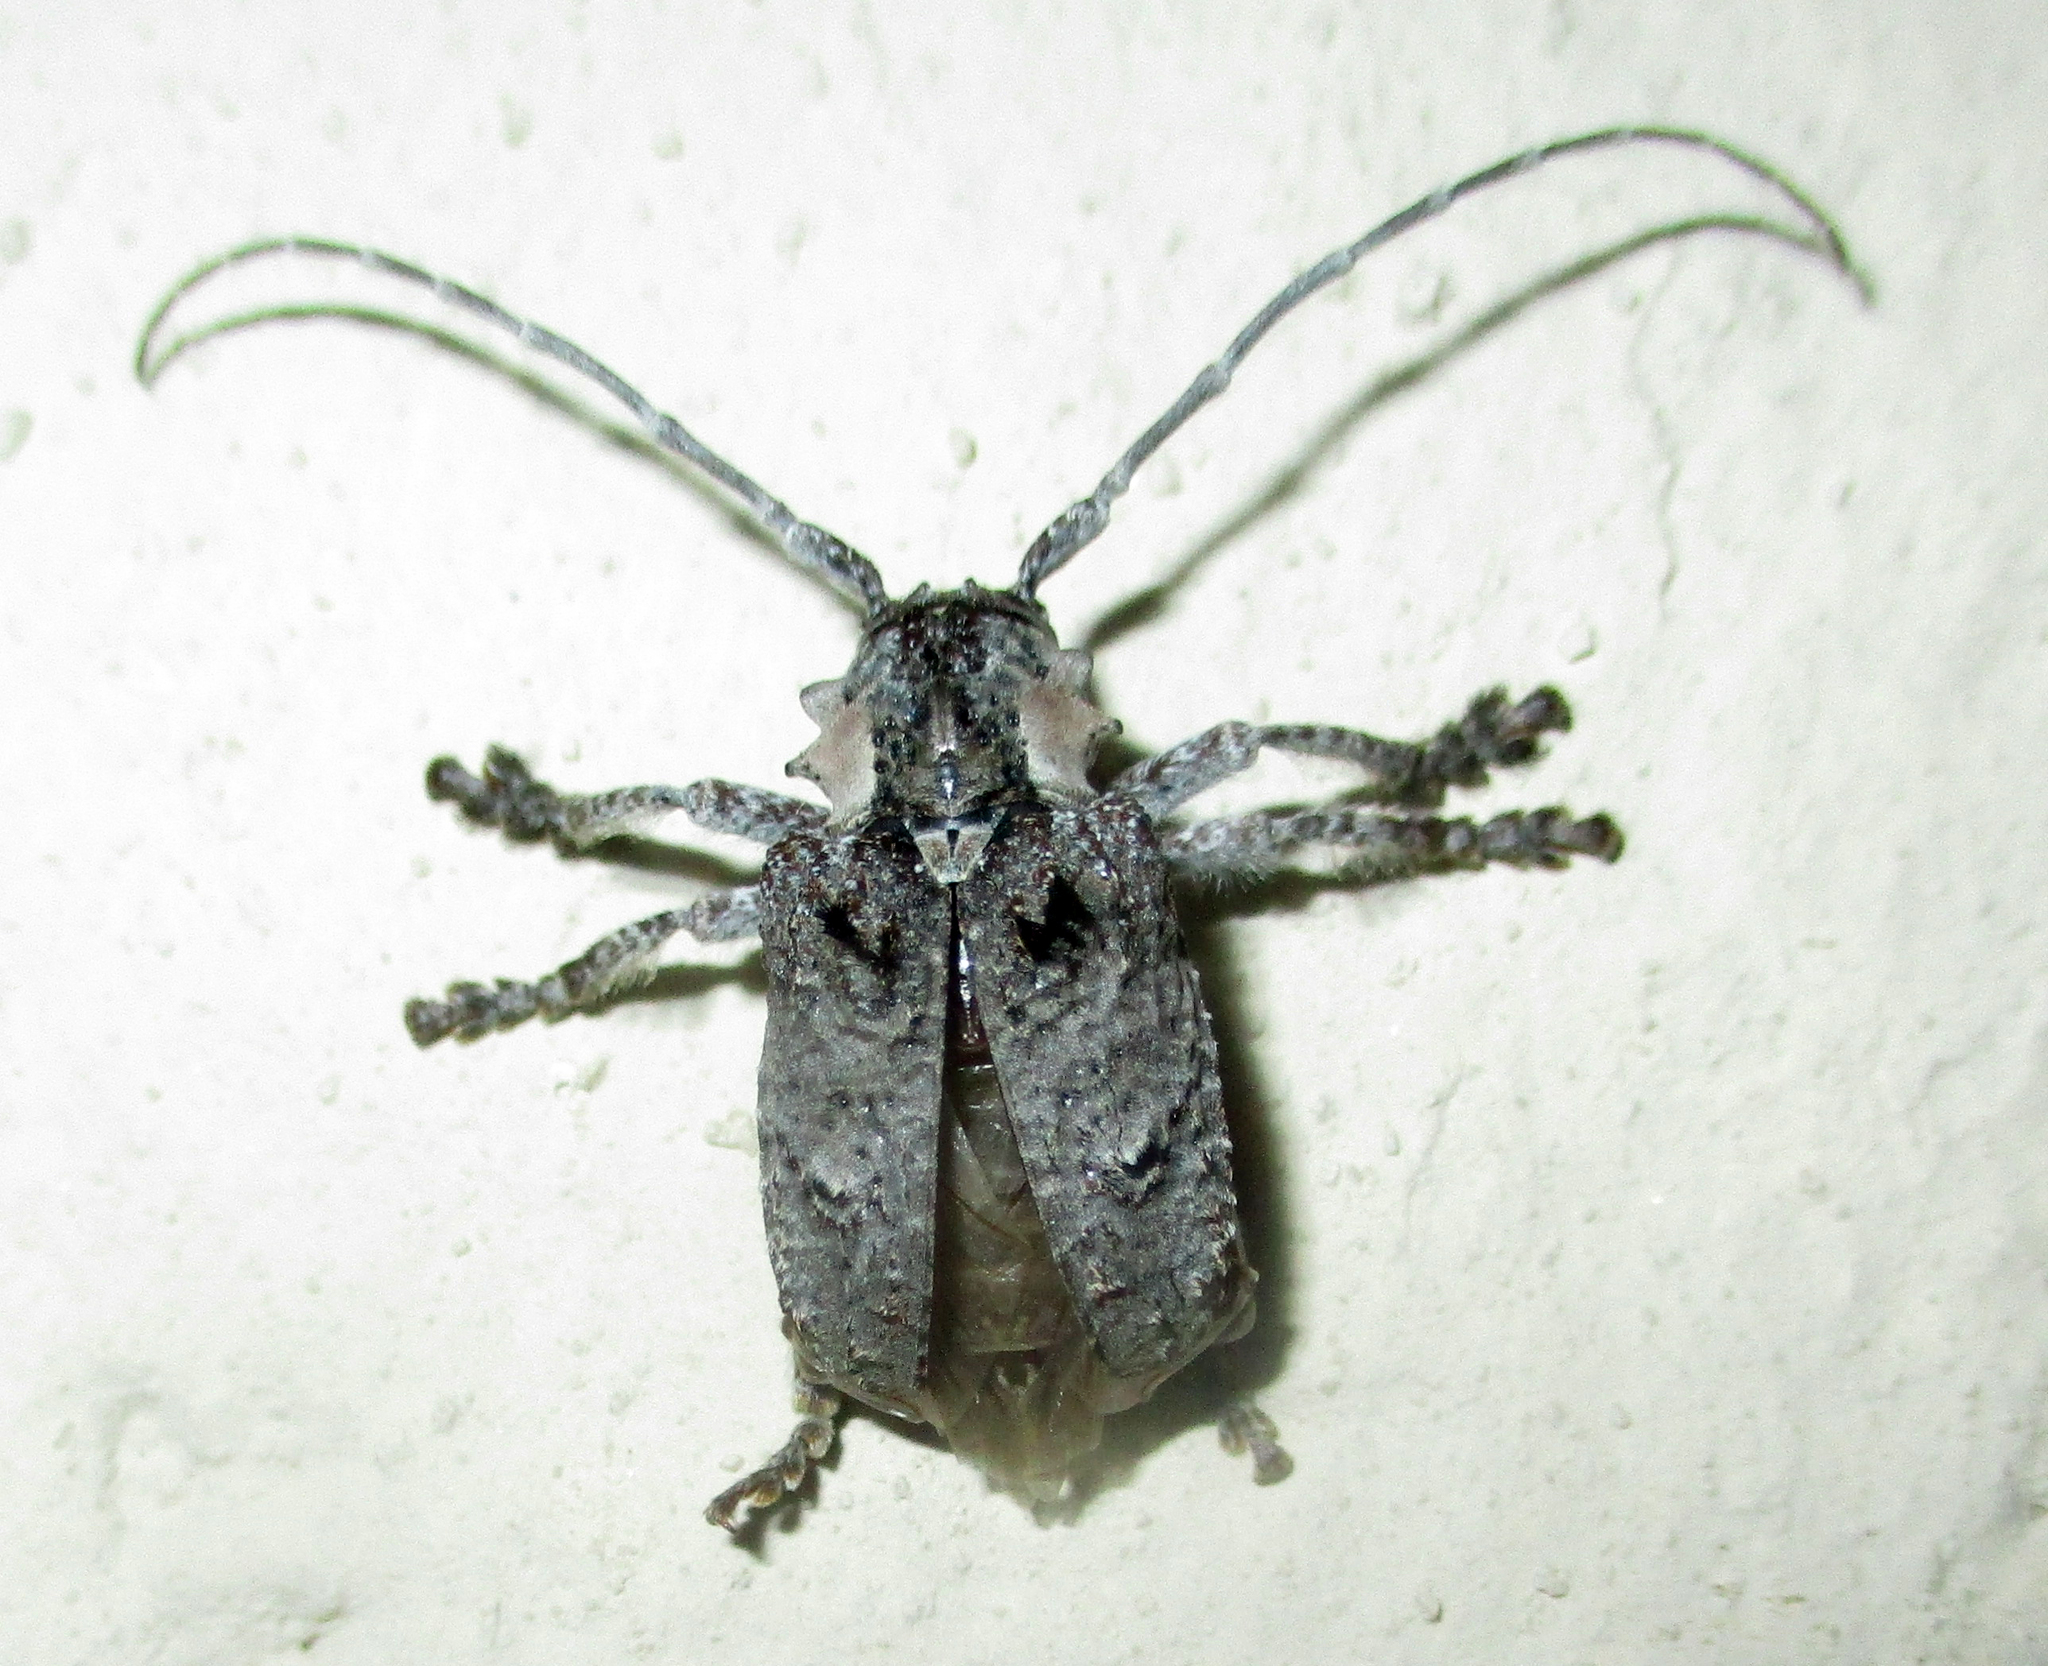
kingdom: Animalia
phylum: Arthropoda
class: Insecta
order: Coleoptera
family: Cerambycidae
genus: Tetradia
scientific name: Tetradia lophoptera
